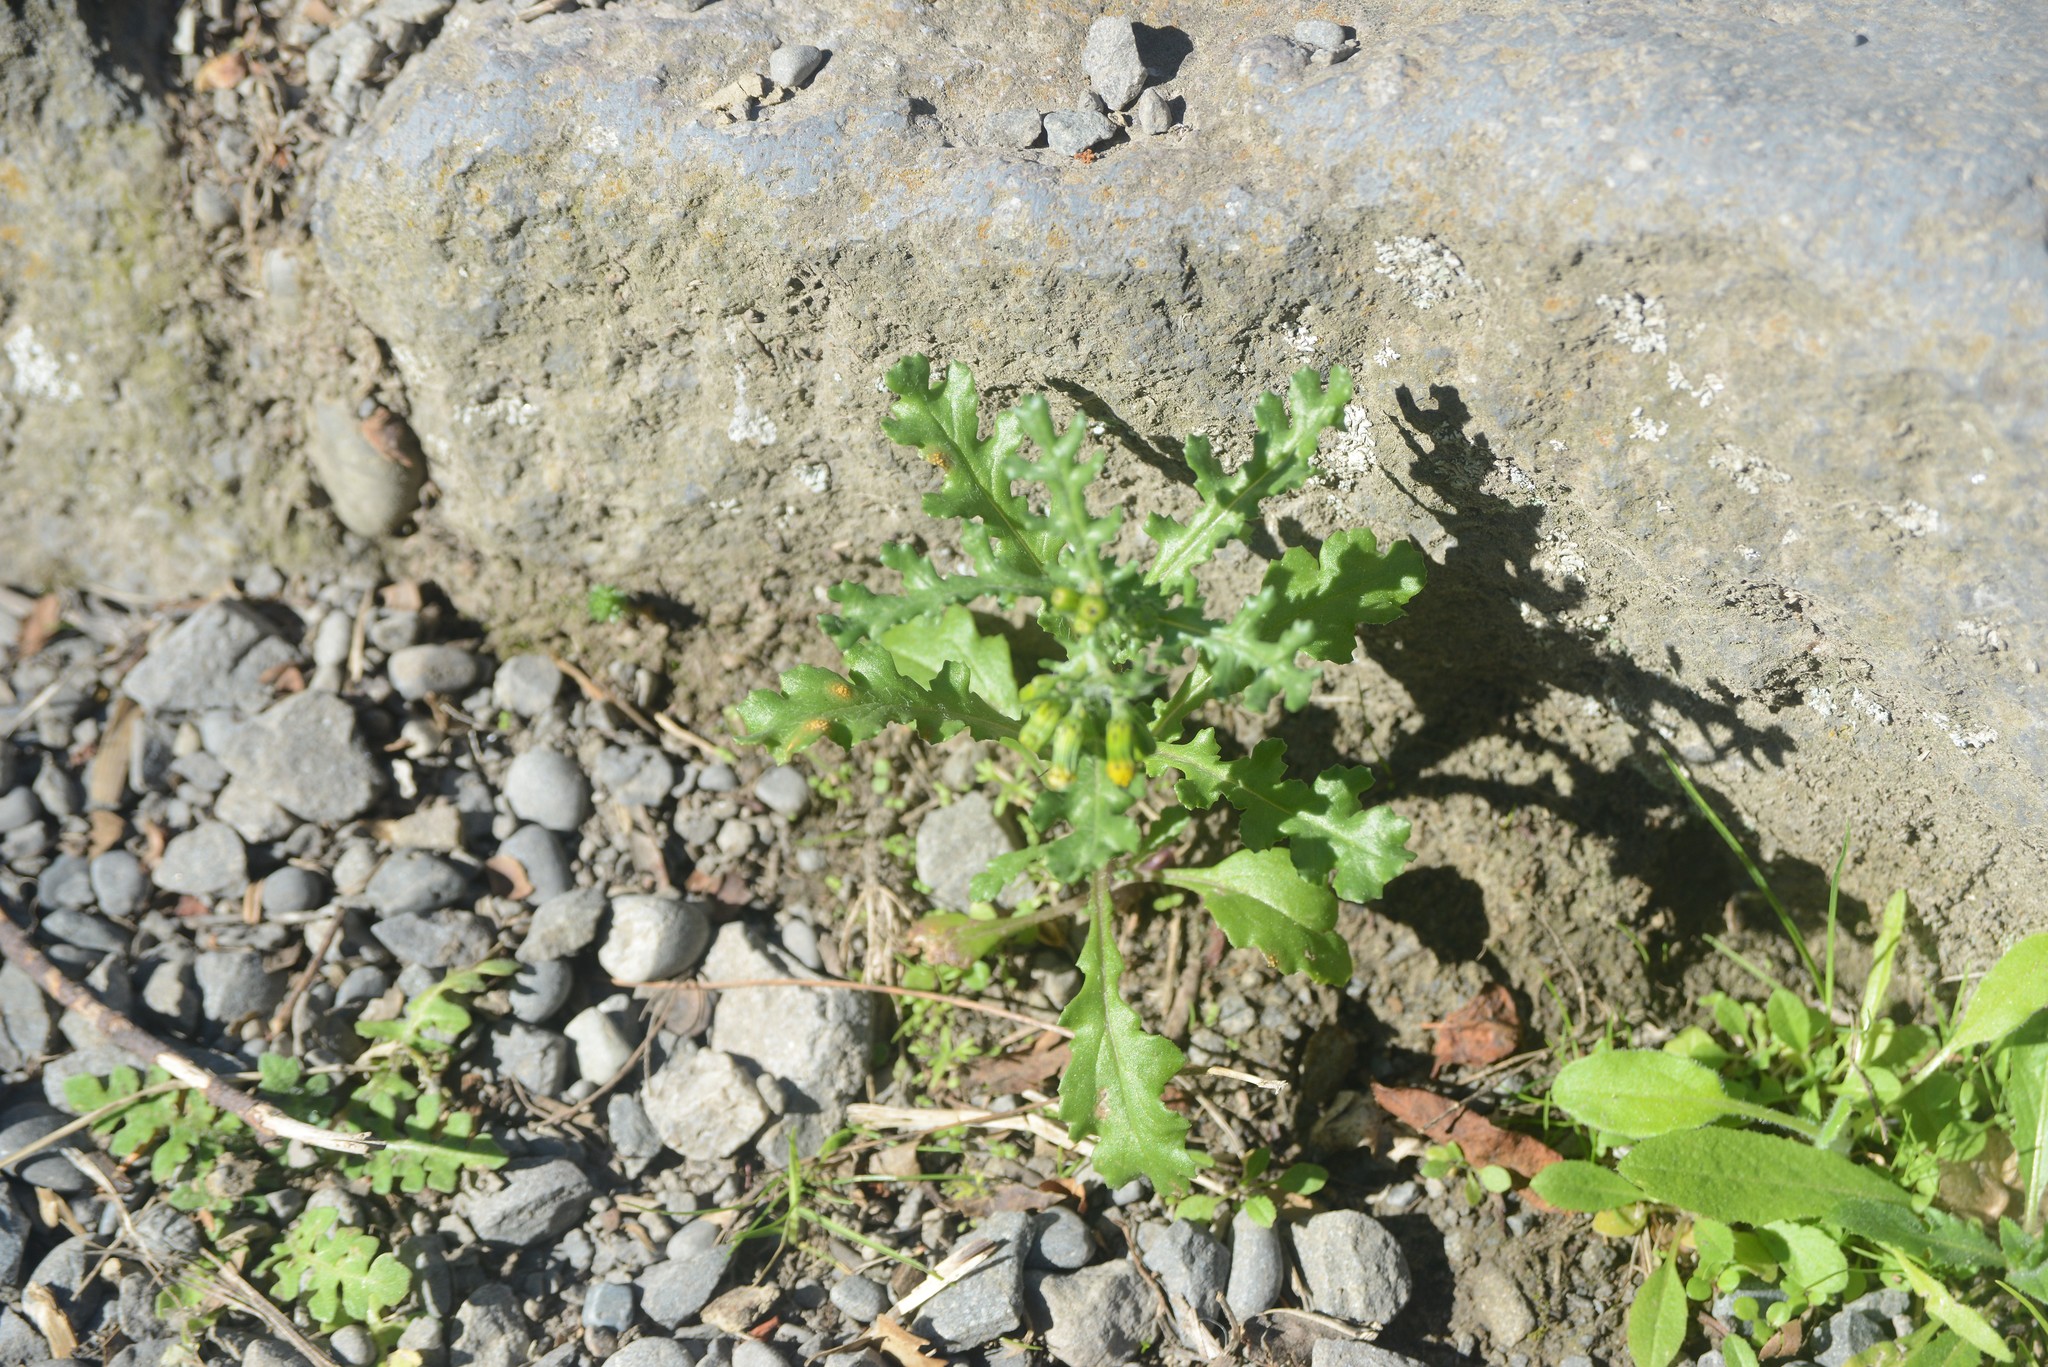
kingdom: Fungi
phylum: Basidiomycota
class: Pucciniomycetes
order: Pucciniales
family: Pucciniaceae
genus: Puccinia
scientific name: Puccinia lagenophorae
